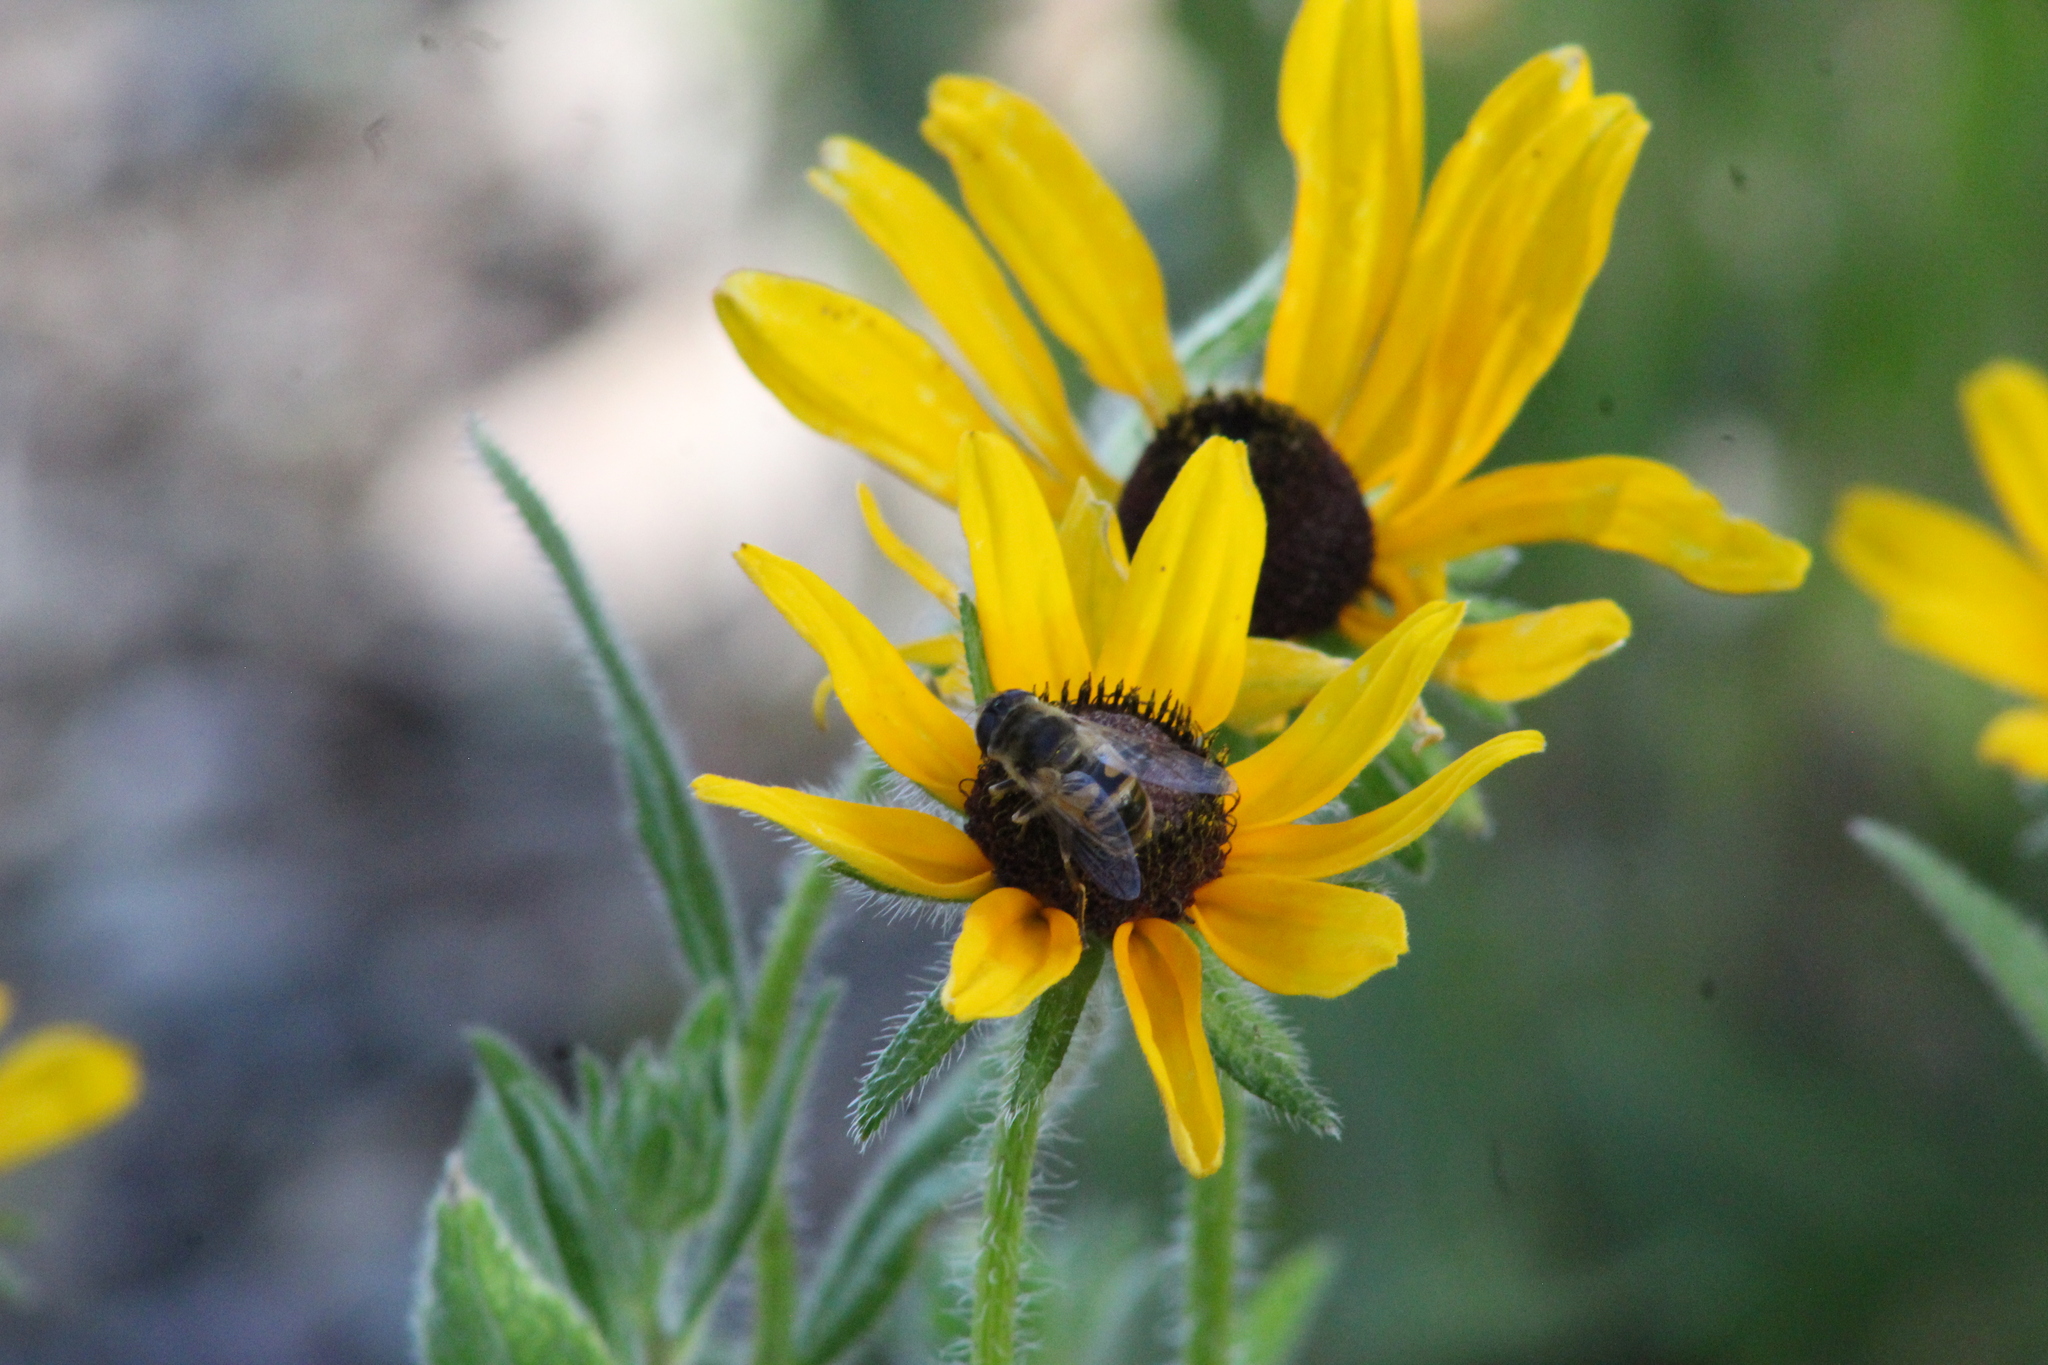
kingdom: Animalia
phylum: Arthropoda
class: Insecta
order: Diptera
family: Syrphidae
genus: Eristalis
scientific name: Eristalis tenax
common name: Drone fly
